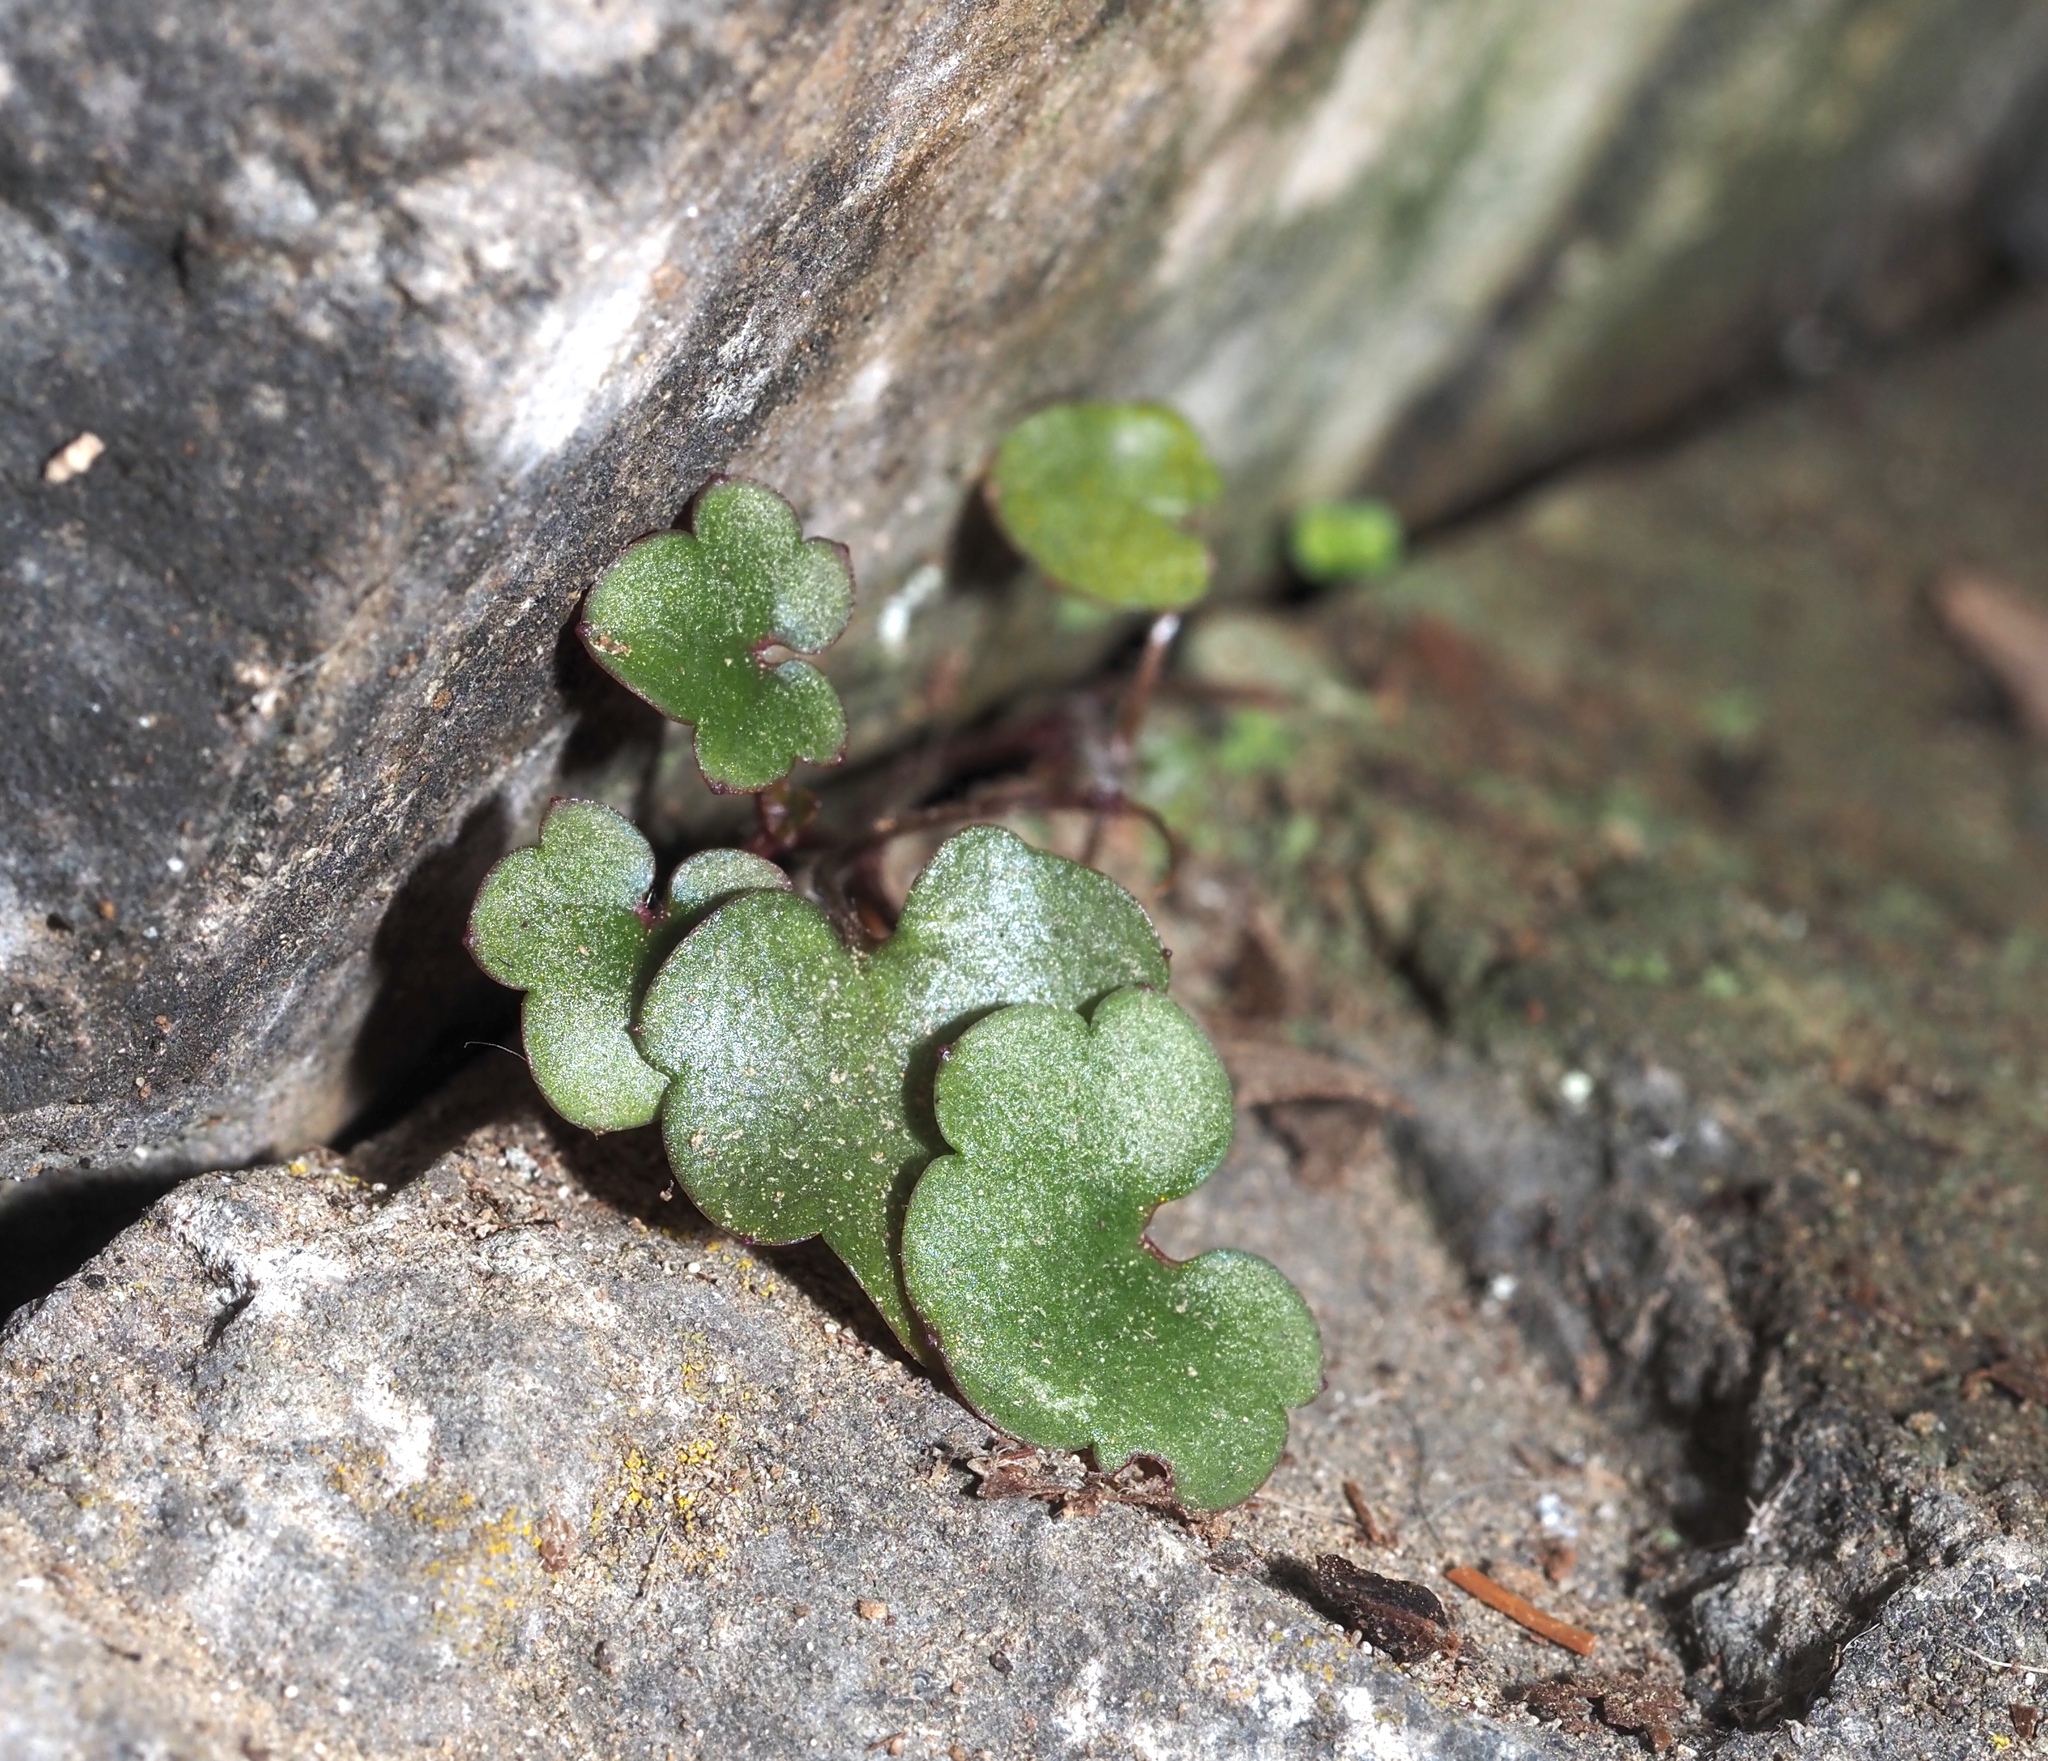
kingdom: Plantae
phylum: Tracheophyta
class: Magnoliopsida
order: Lamiales
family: Plantaginaceae
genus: Cymbalaria
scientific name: Cymbalaria muralis
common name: Ivy-leaved toadflax
